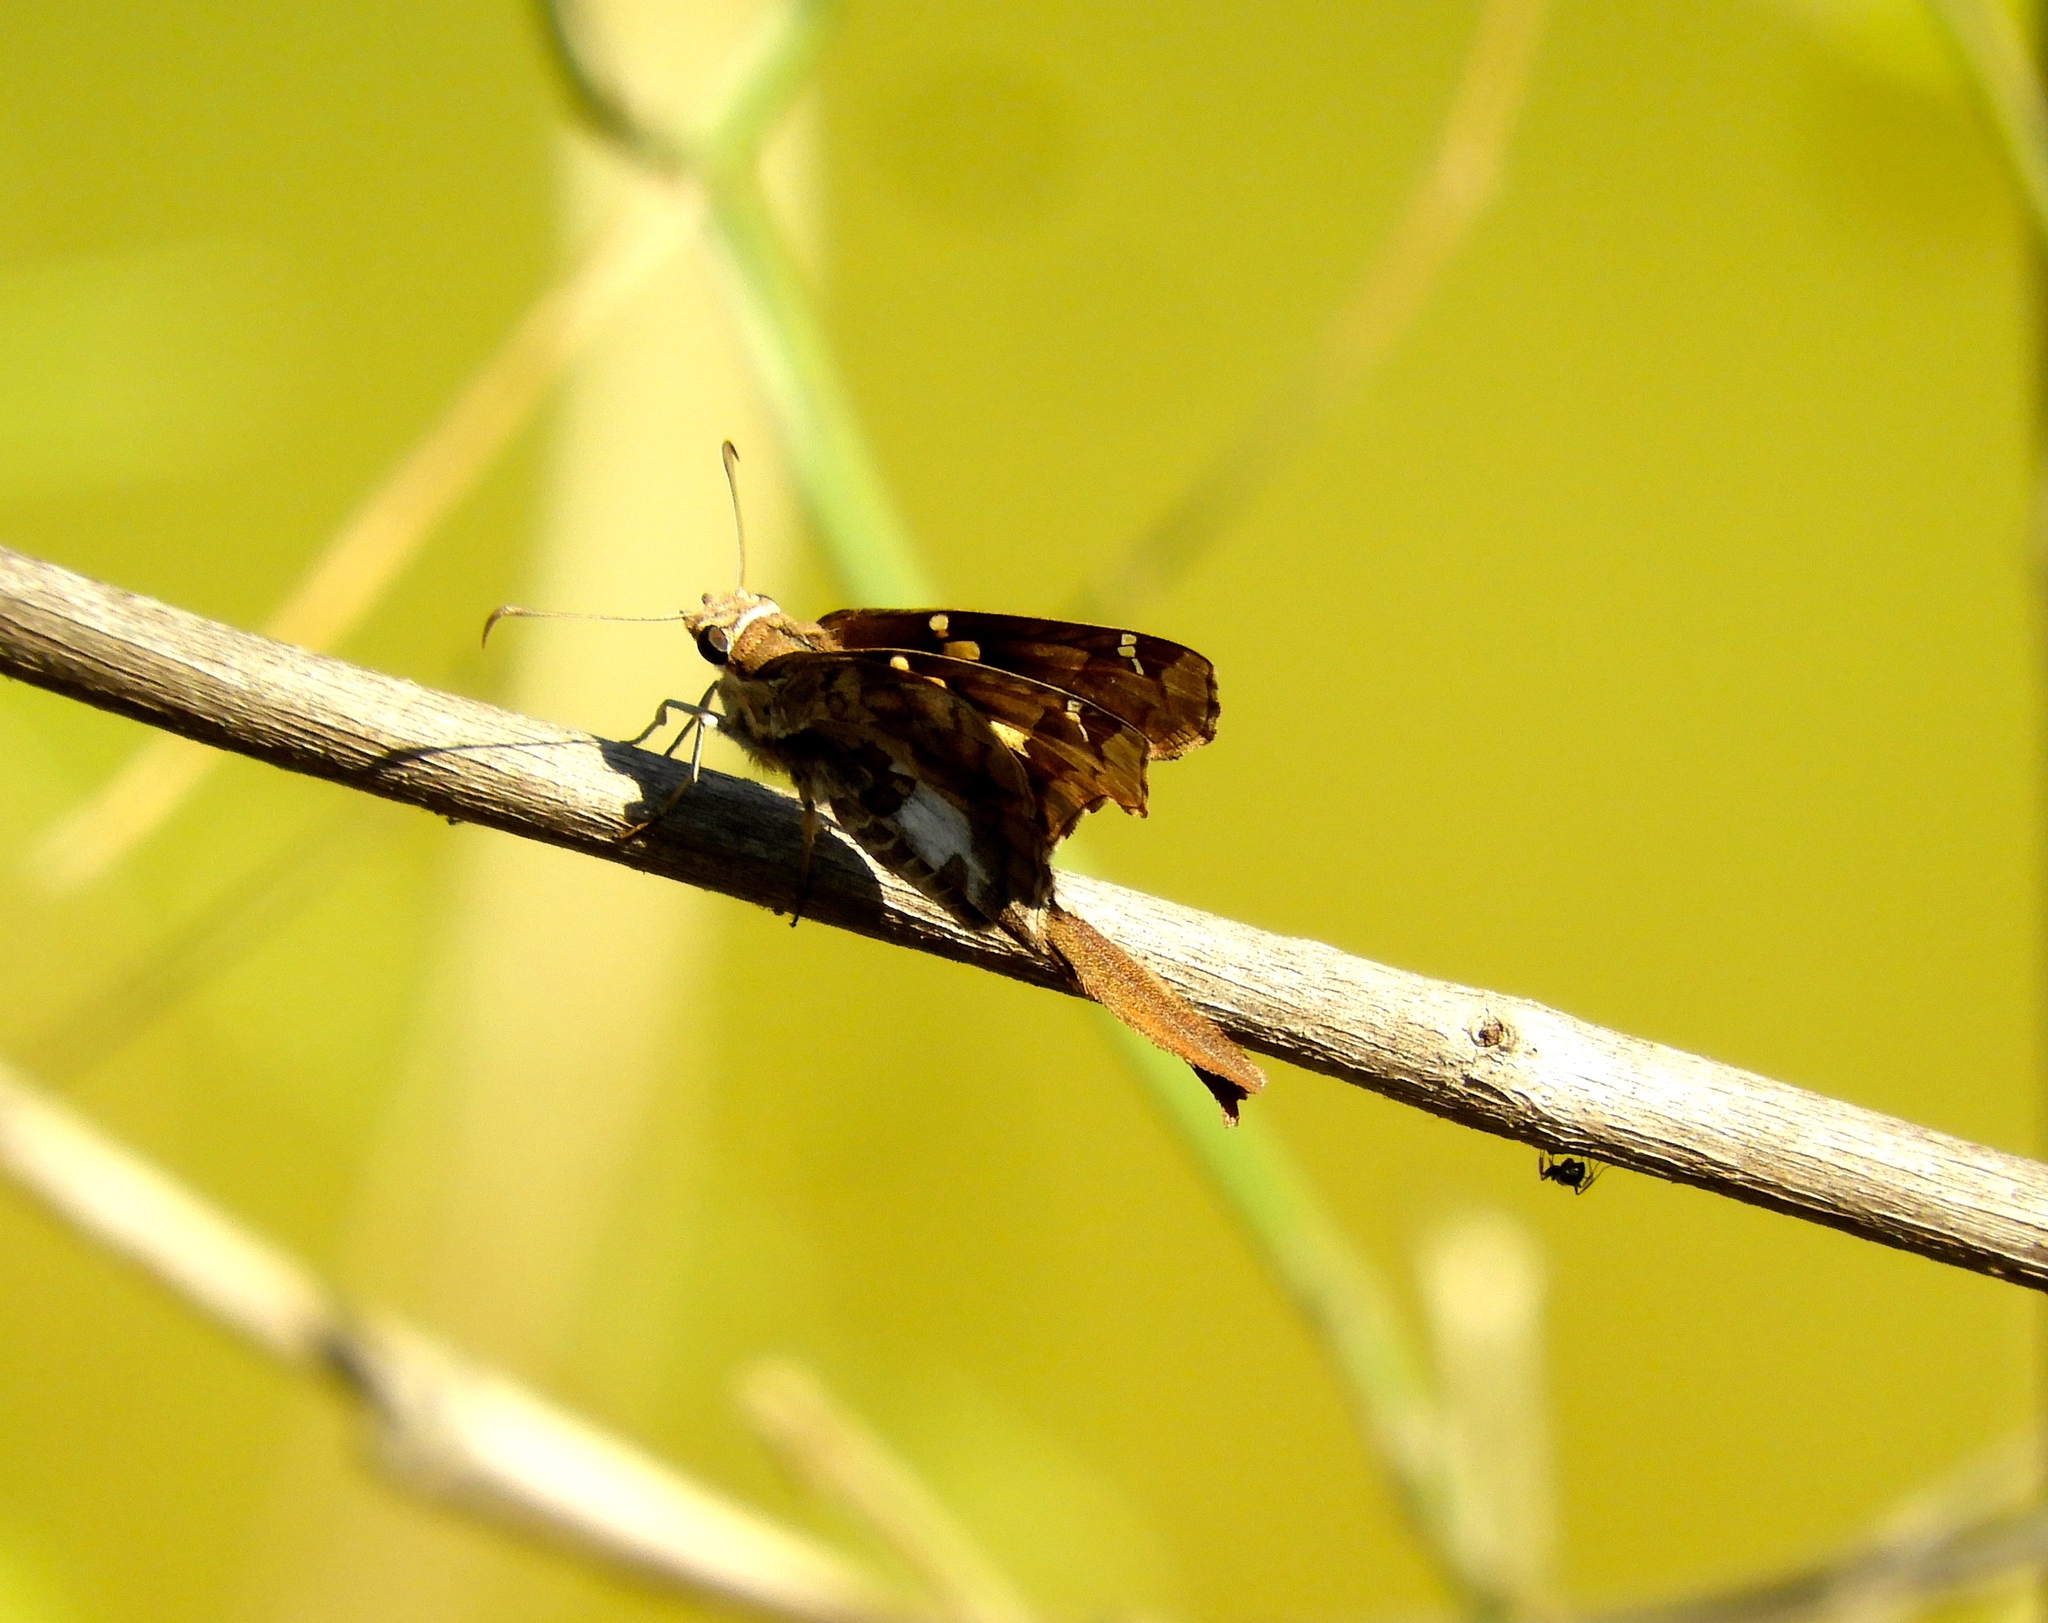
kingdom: Animalia
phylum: Arthropoda
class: Insecta
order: Lepidoptera
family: Hesperiidae
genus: Chioides
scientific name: Chioides zilpa
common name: Zilpa longtail
